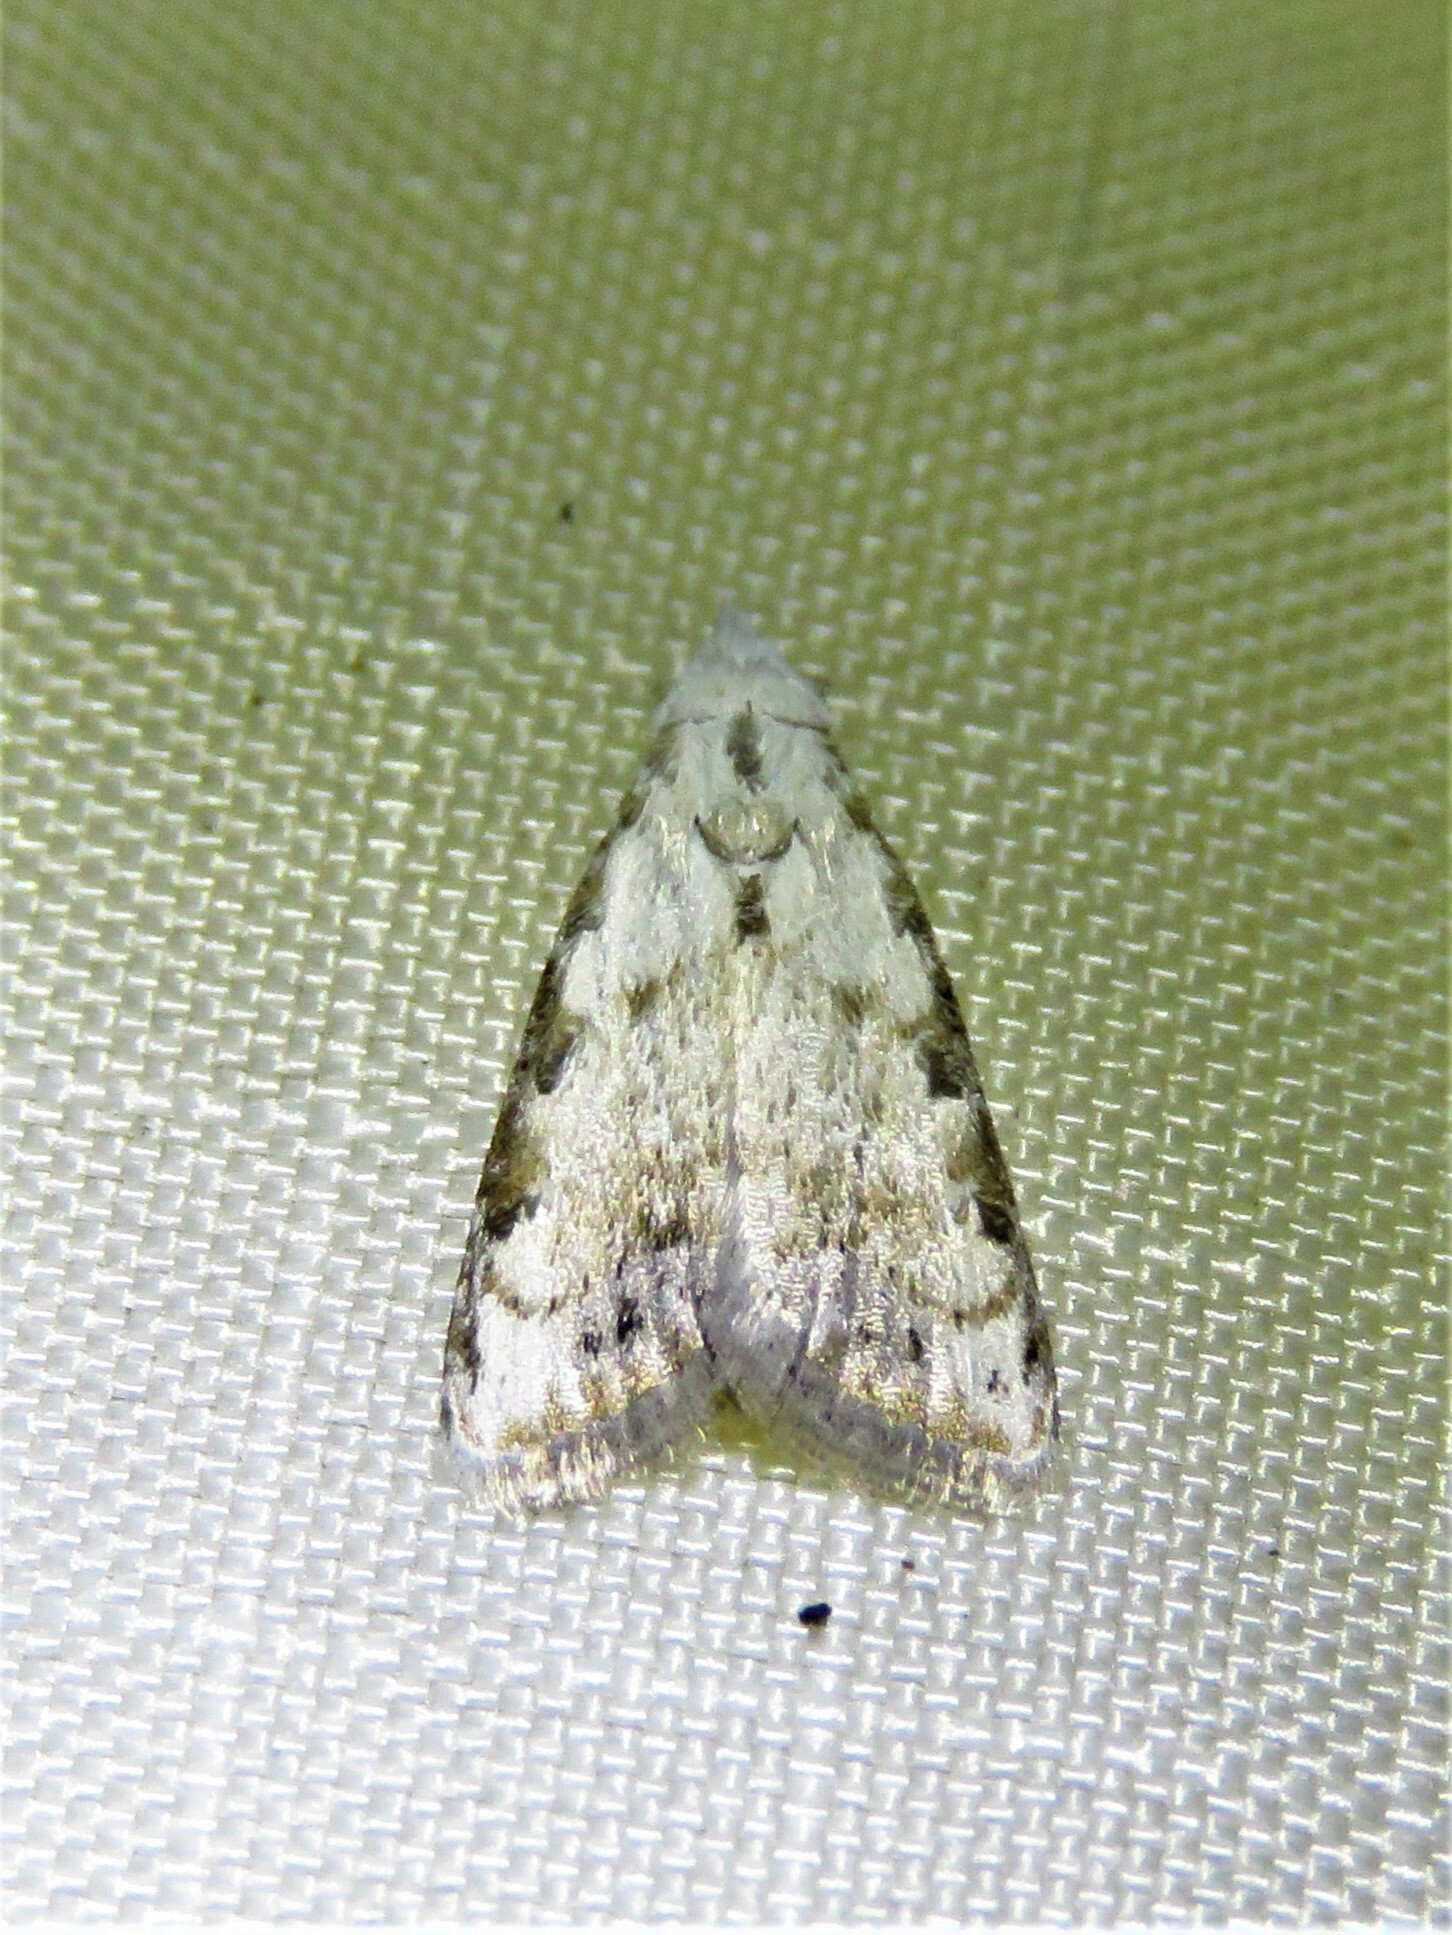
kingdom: Animalia
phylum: Arthropoda
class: Insecta
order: Lepidoptera
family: Nolidae
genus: Nola
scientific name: Nola cereella
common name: Sorghum webworm moth
